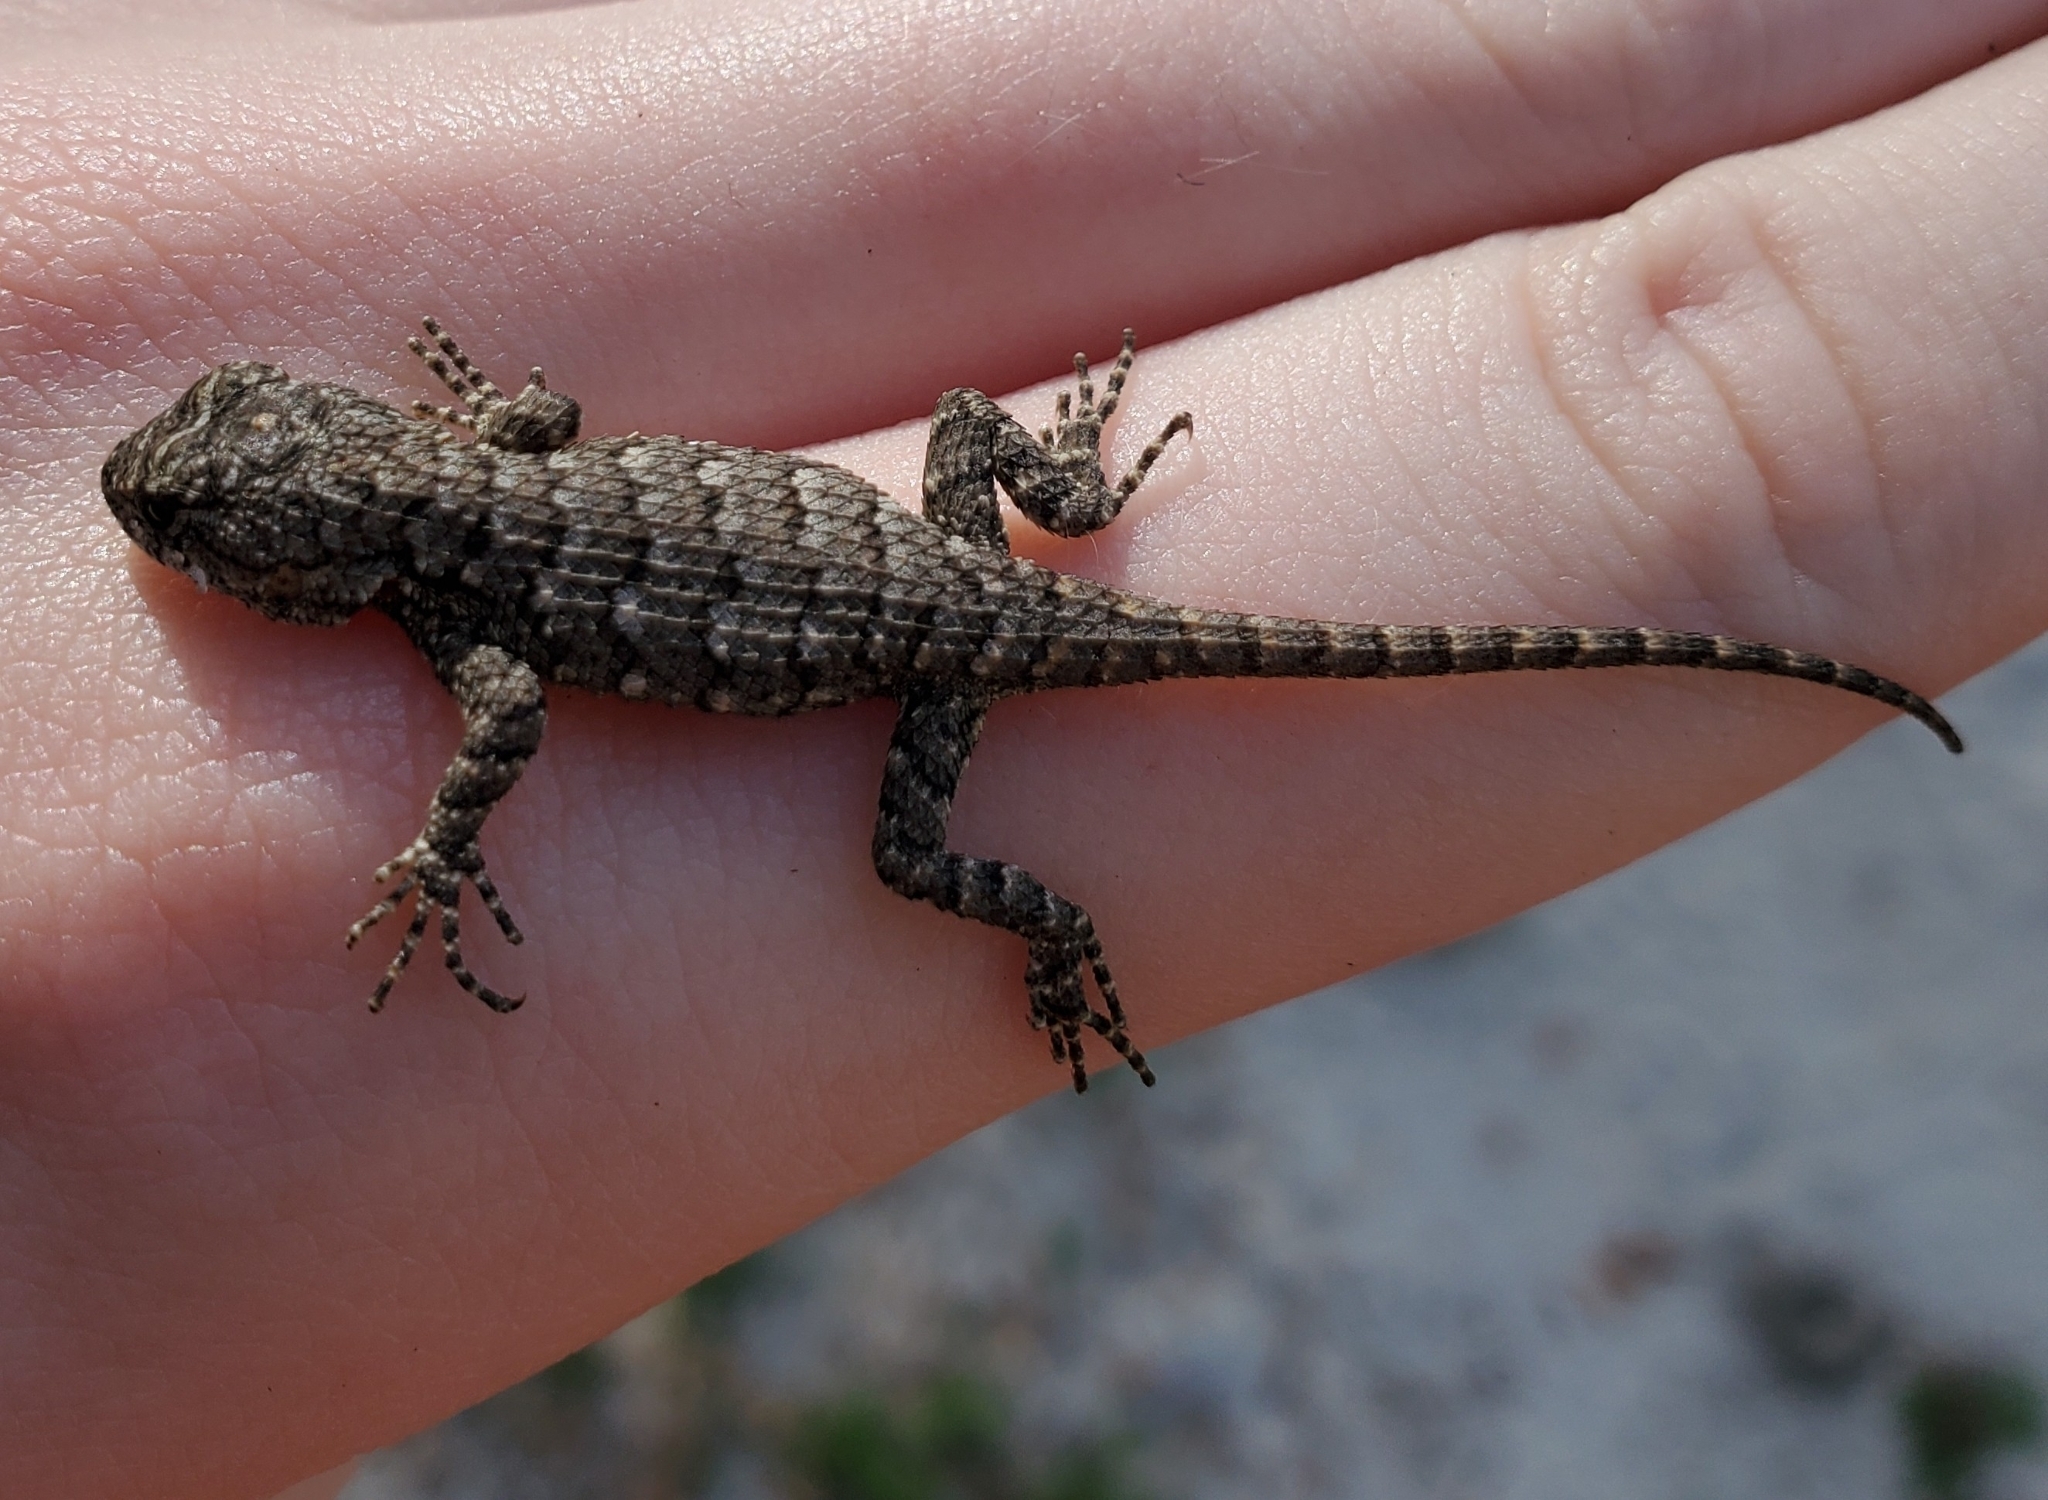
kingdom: Animalia
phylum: Chordata
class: Squamata
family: Phrynosomatidae
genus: Sceloporus
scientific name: Sceloporus undulatus
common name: Eastern fence lizard
